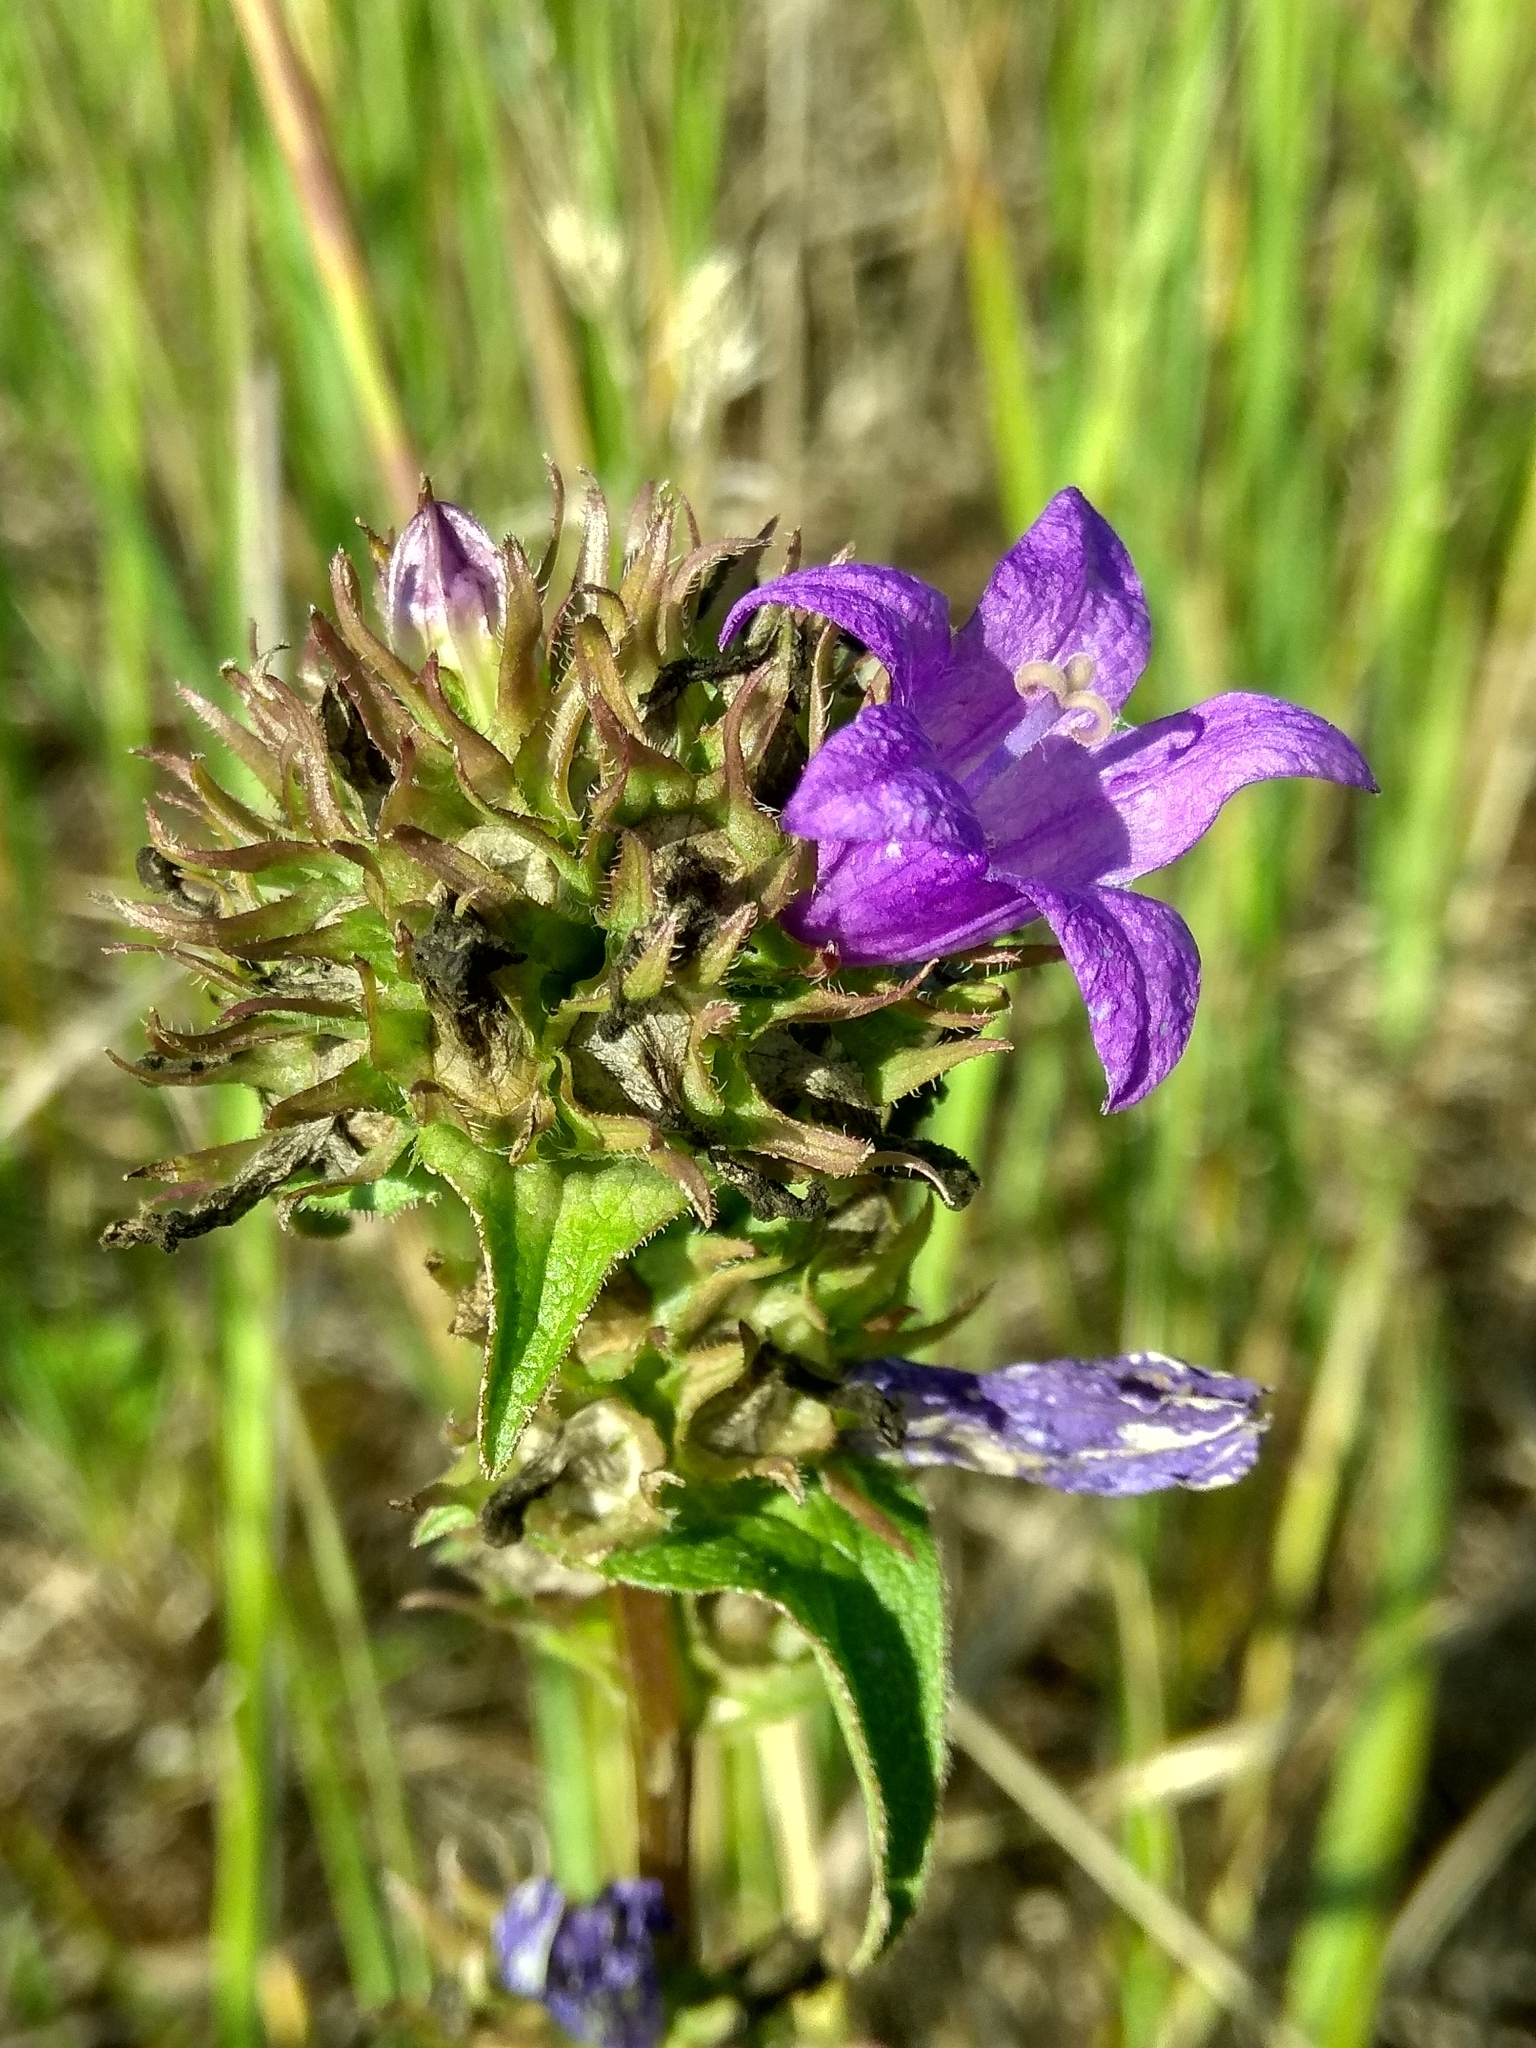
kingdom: Plantae
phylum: Tracheophyta
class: Magnoliopsida
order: Asterales
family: Campanulaceae
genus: Campanula
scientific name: Campanula glomerata
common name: Clustered bellflower
